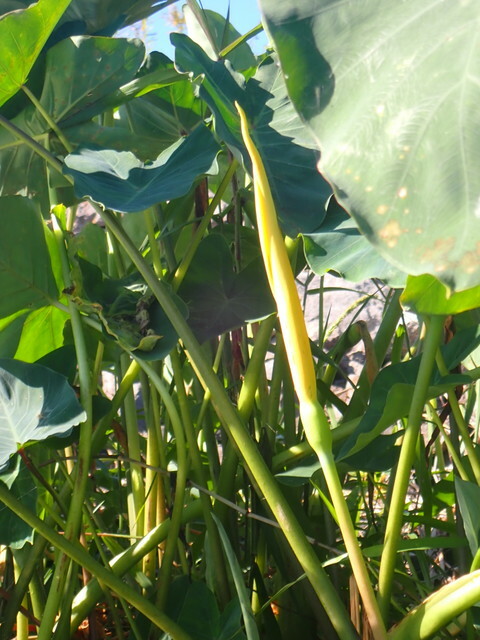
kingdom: Plantae
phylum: Tracheophyta
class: Liliopsida
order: Alismatales
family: Araceae
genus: Colocasia
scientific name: Colocasia esculenta
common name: Taro
